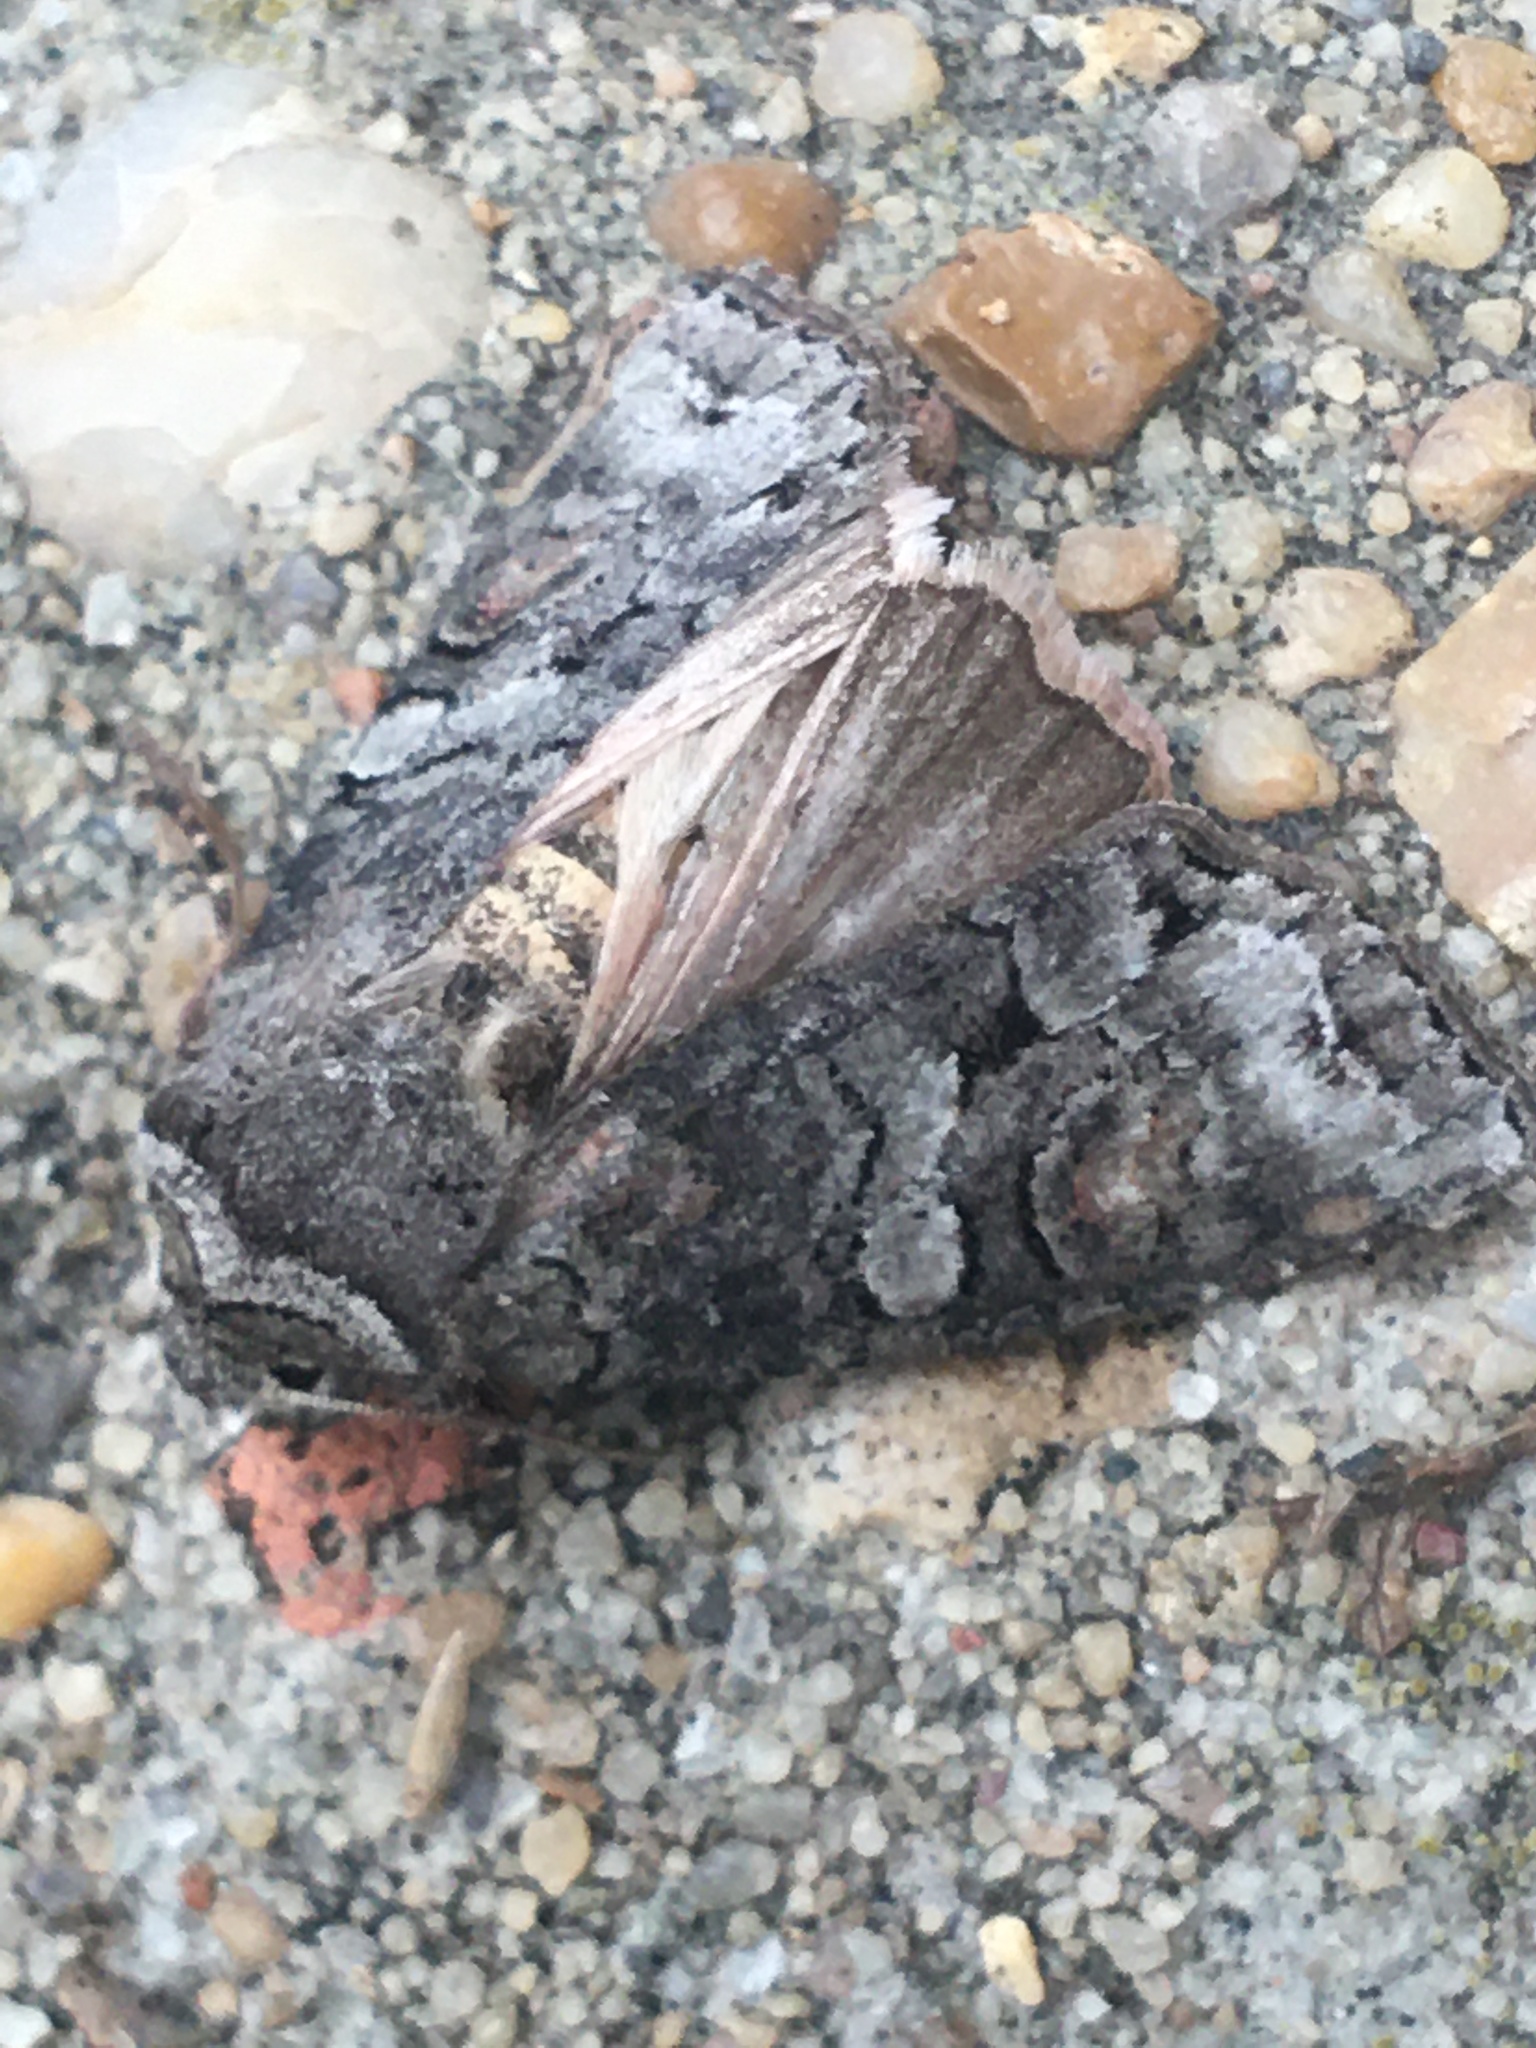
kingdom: Animalia
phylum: Arthropoda
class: Insecta
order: Lepidoptera
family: Noctuidae
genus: Egira
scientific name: Egira alternans
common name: Alternate woodling
